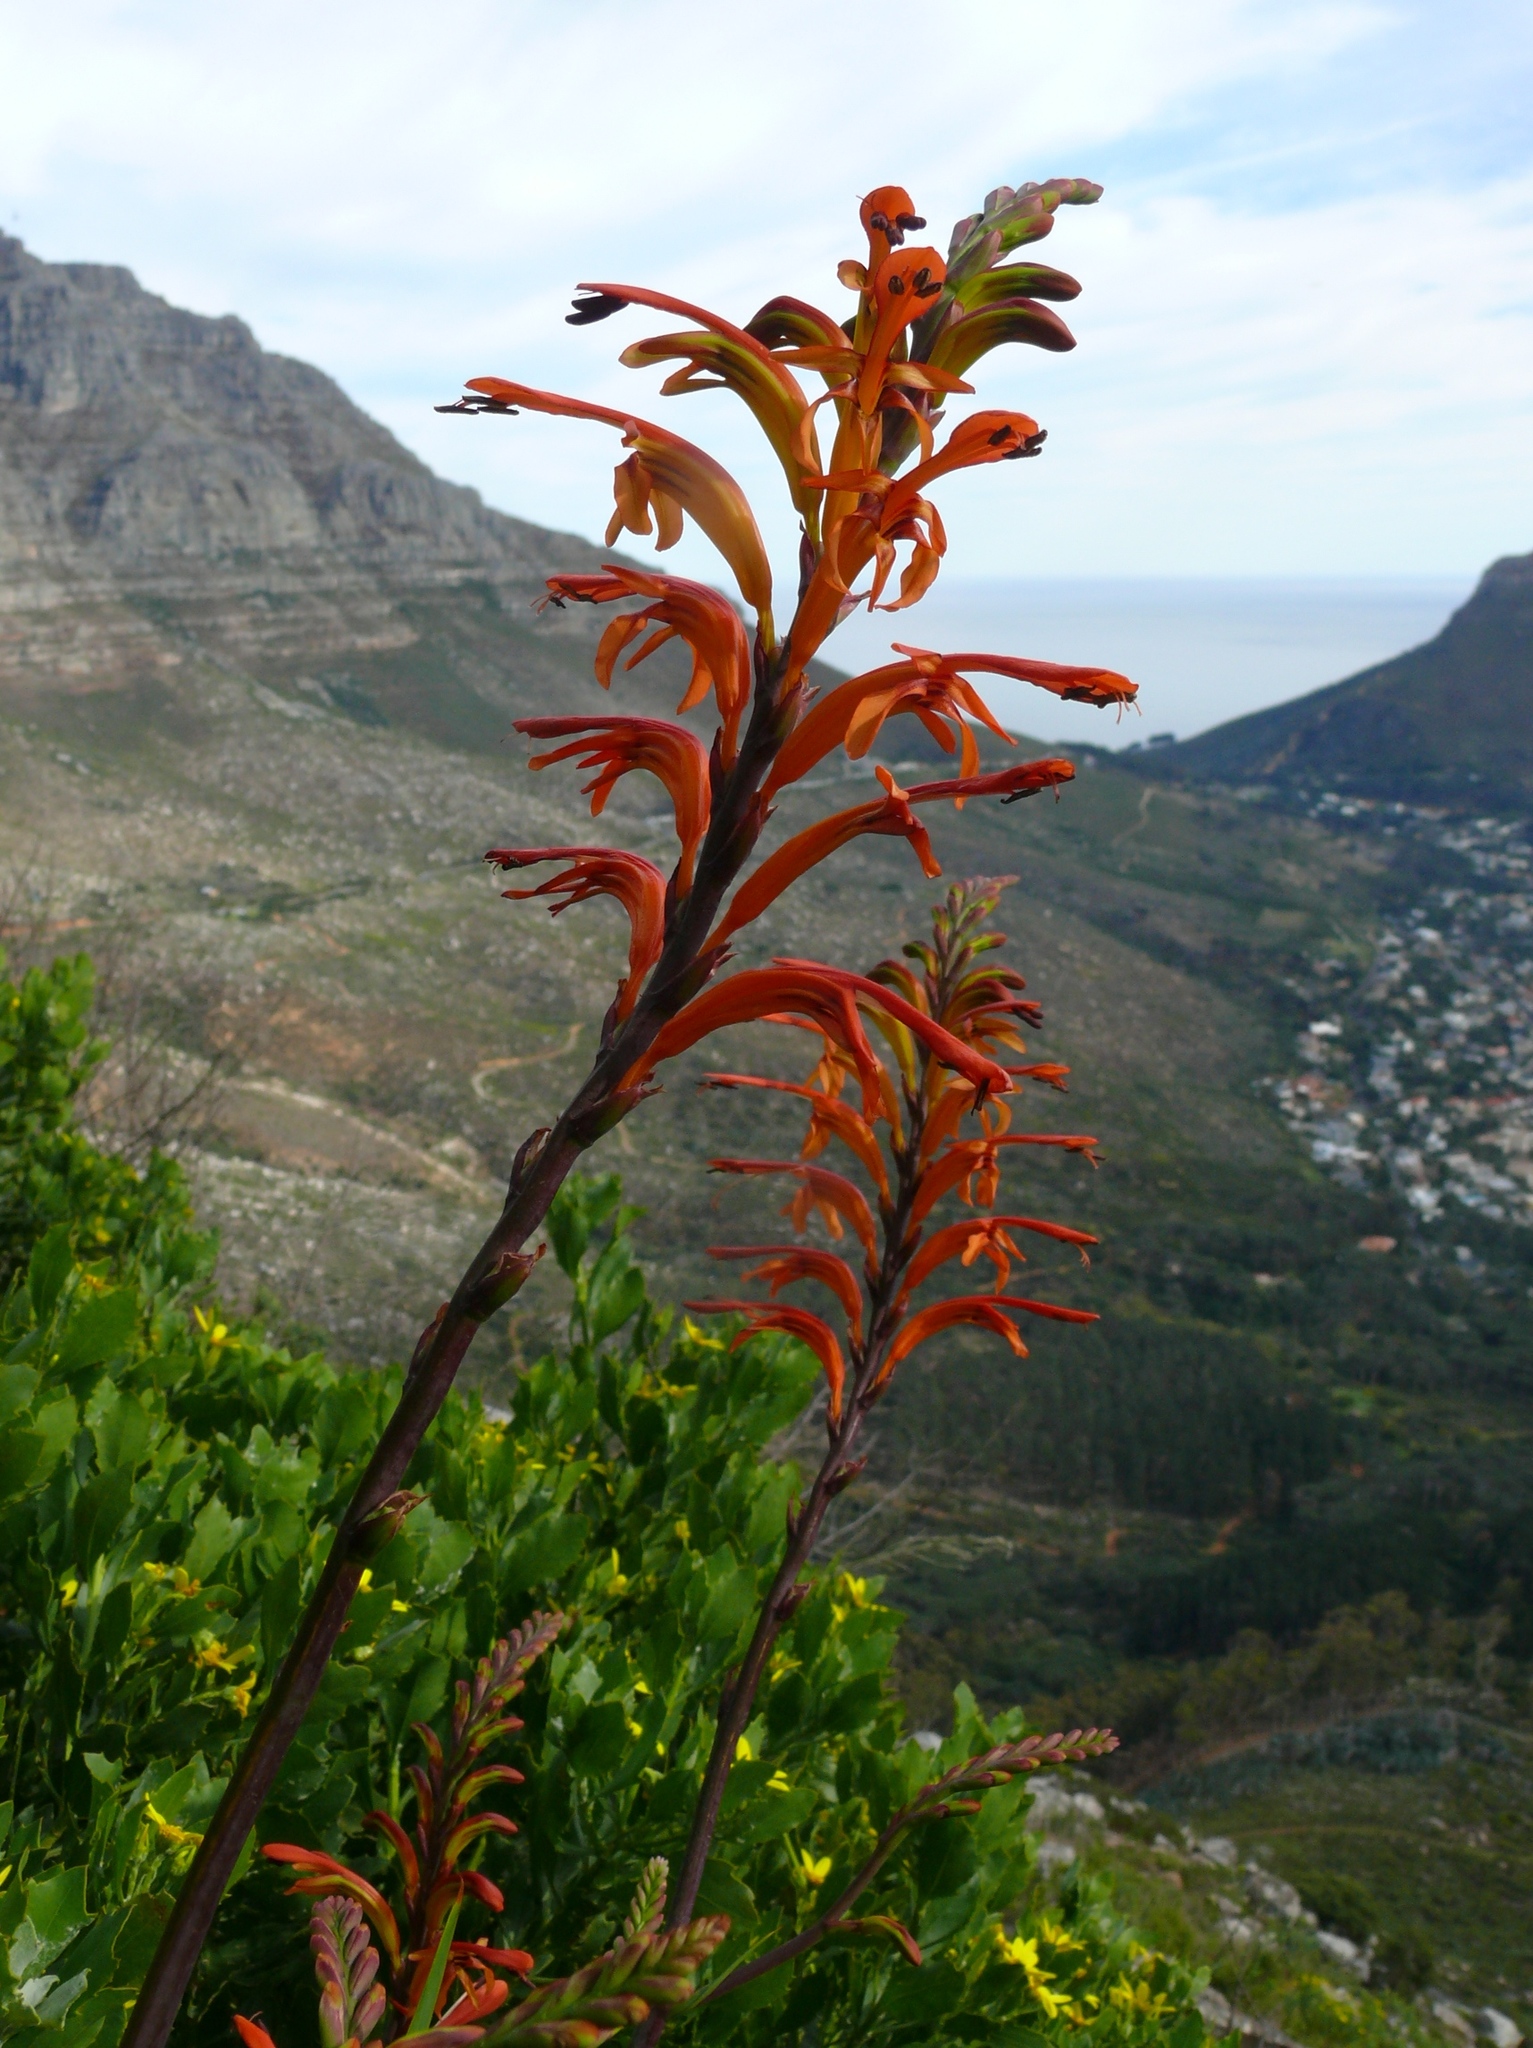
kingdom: Plantae
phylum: Tracheophyta
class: Liliopsida
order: Asparagales
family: Iridaceae
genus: Chasmanthe
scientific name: Chasmanthe floribunda
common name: African cornflag
